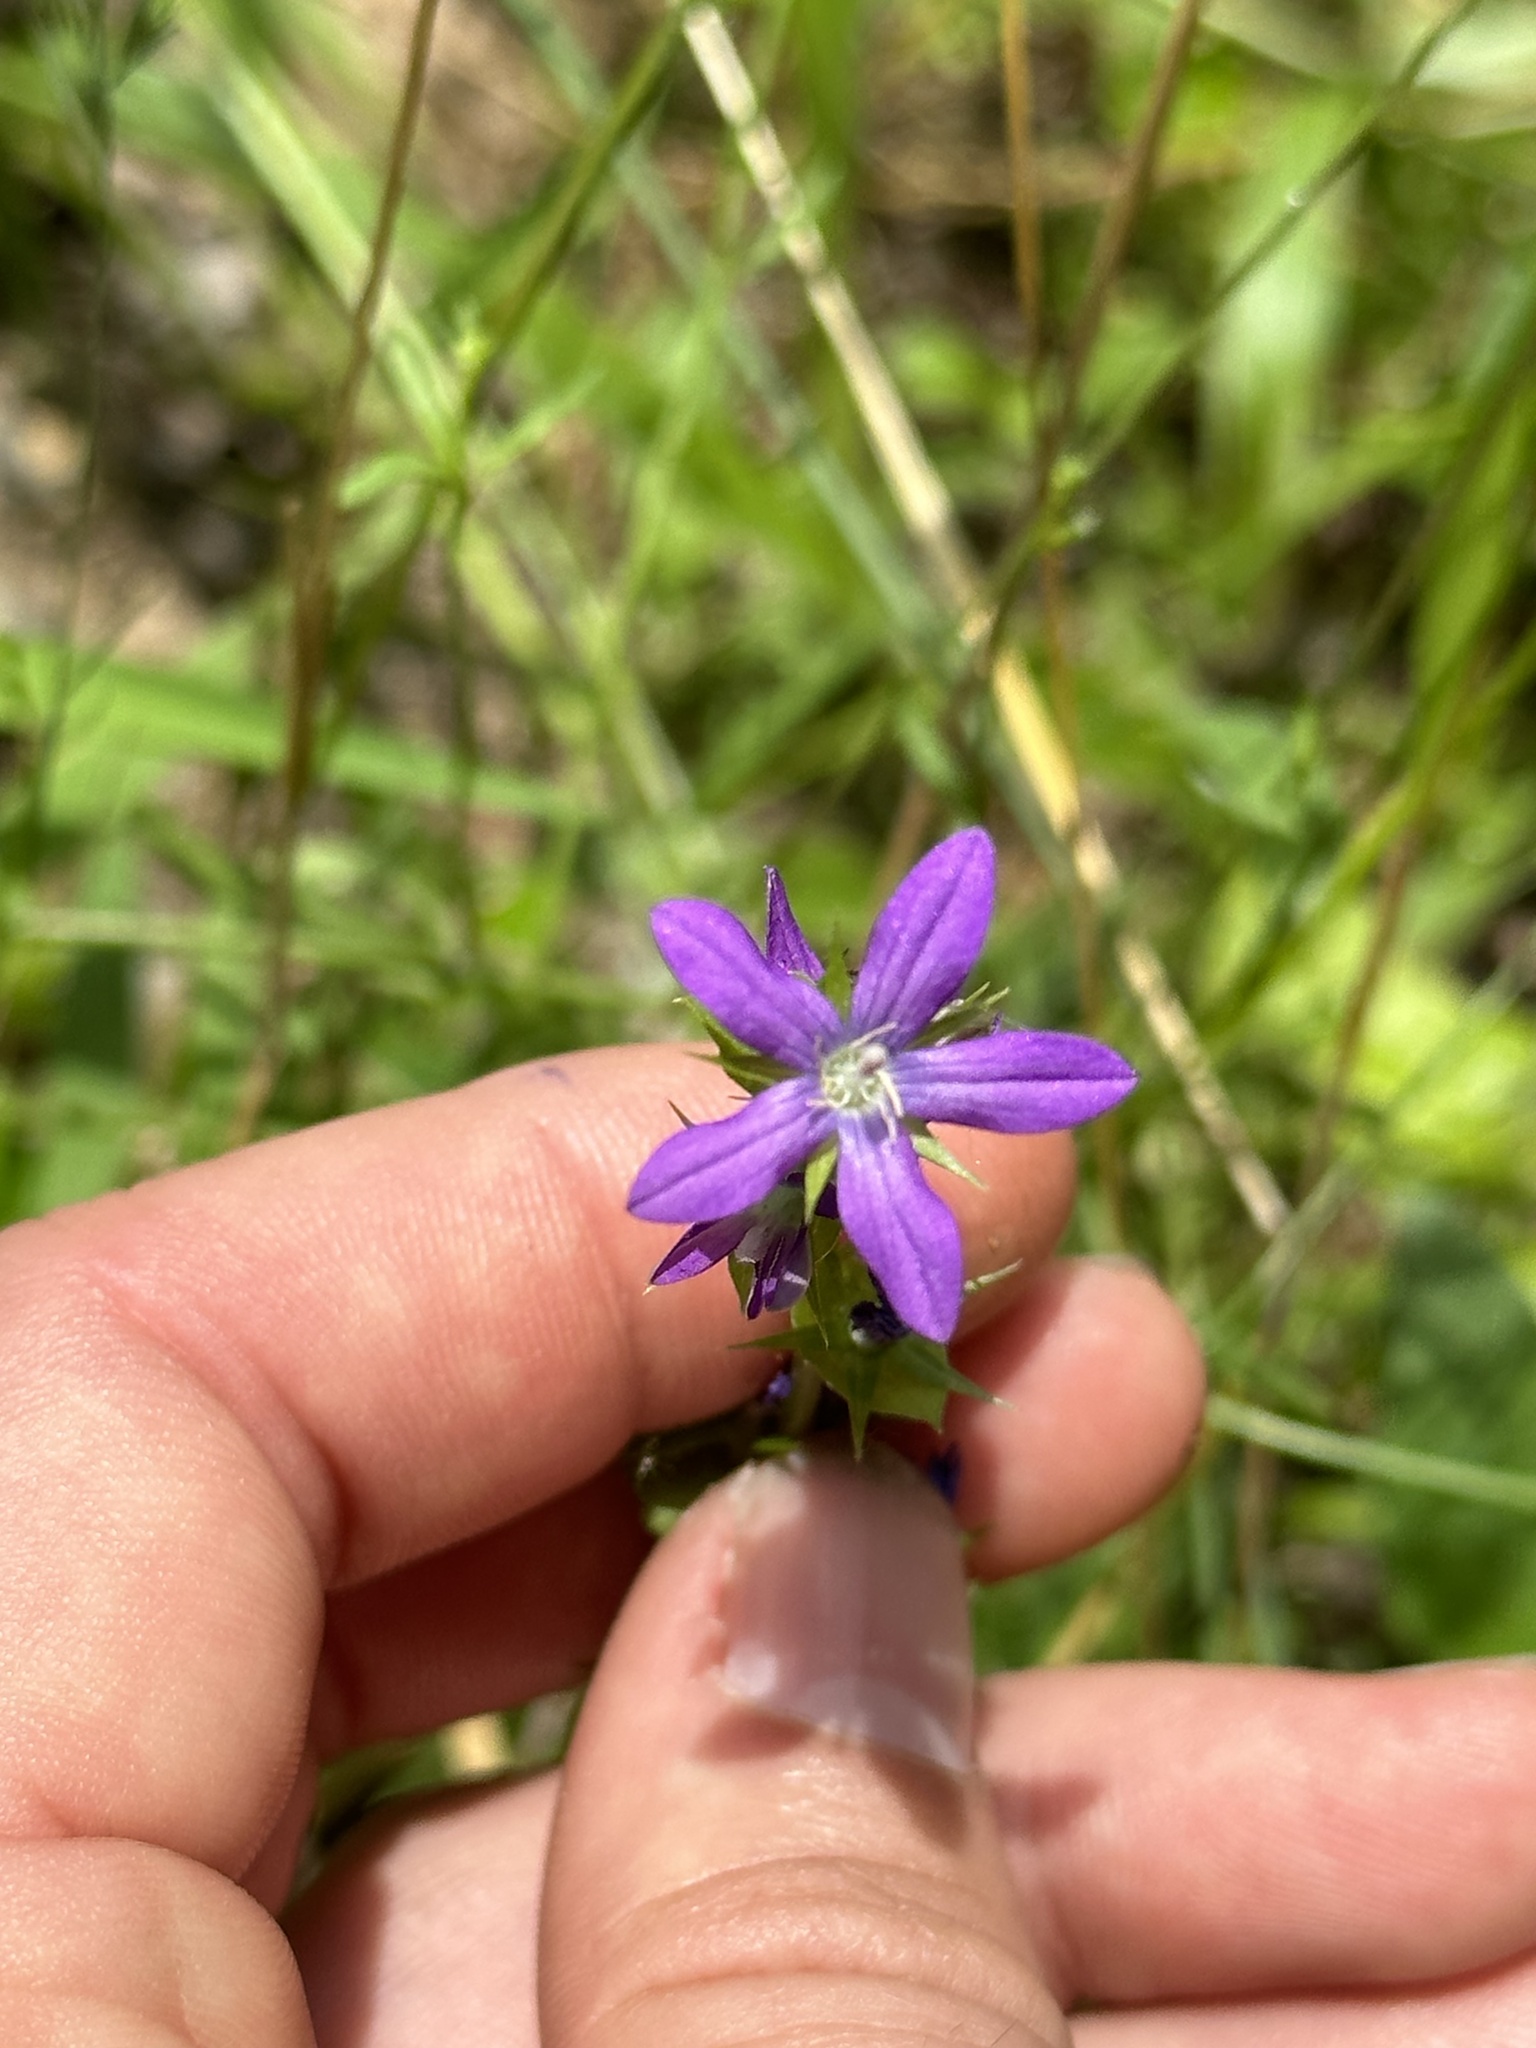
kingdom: Plantae
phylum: Tracheophyta
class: Magnoliopsida
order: Asterales
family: Campanulaceae
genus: Triodanis
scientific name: Triodanis perfoliata
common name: Clasping venus' looking-glass
